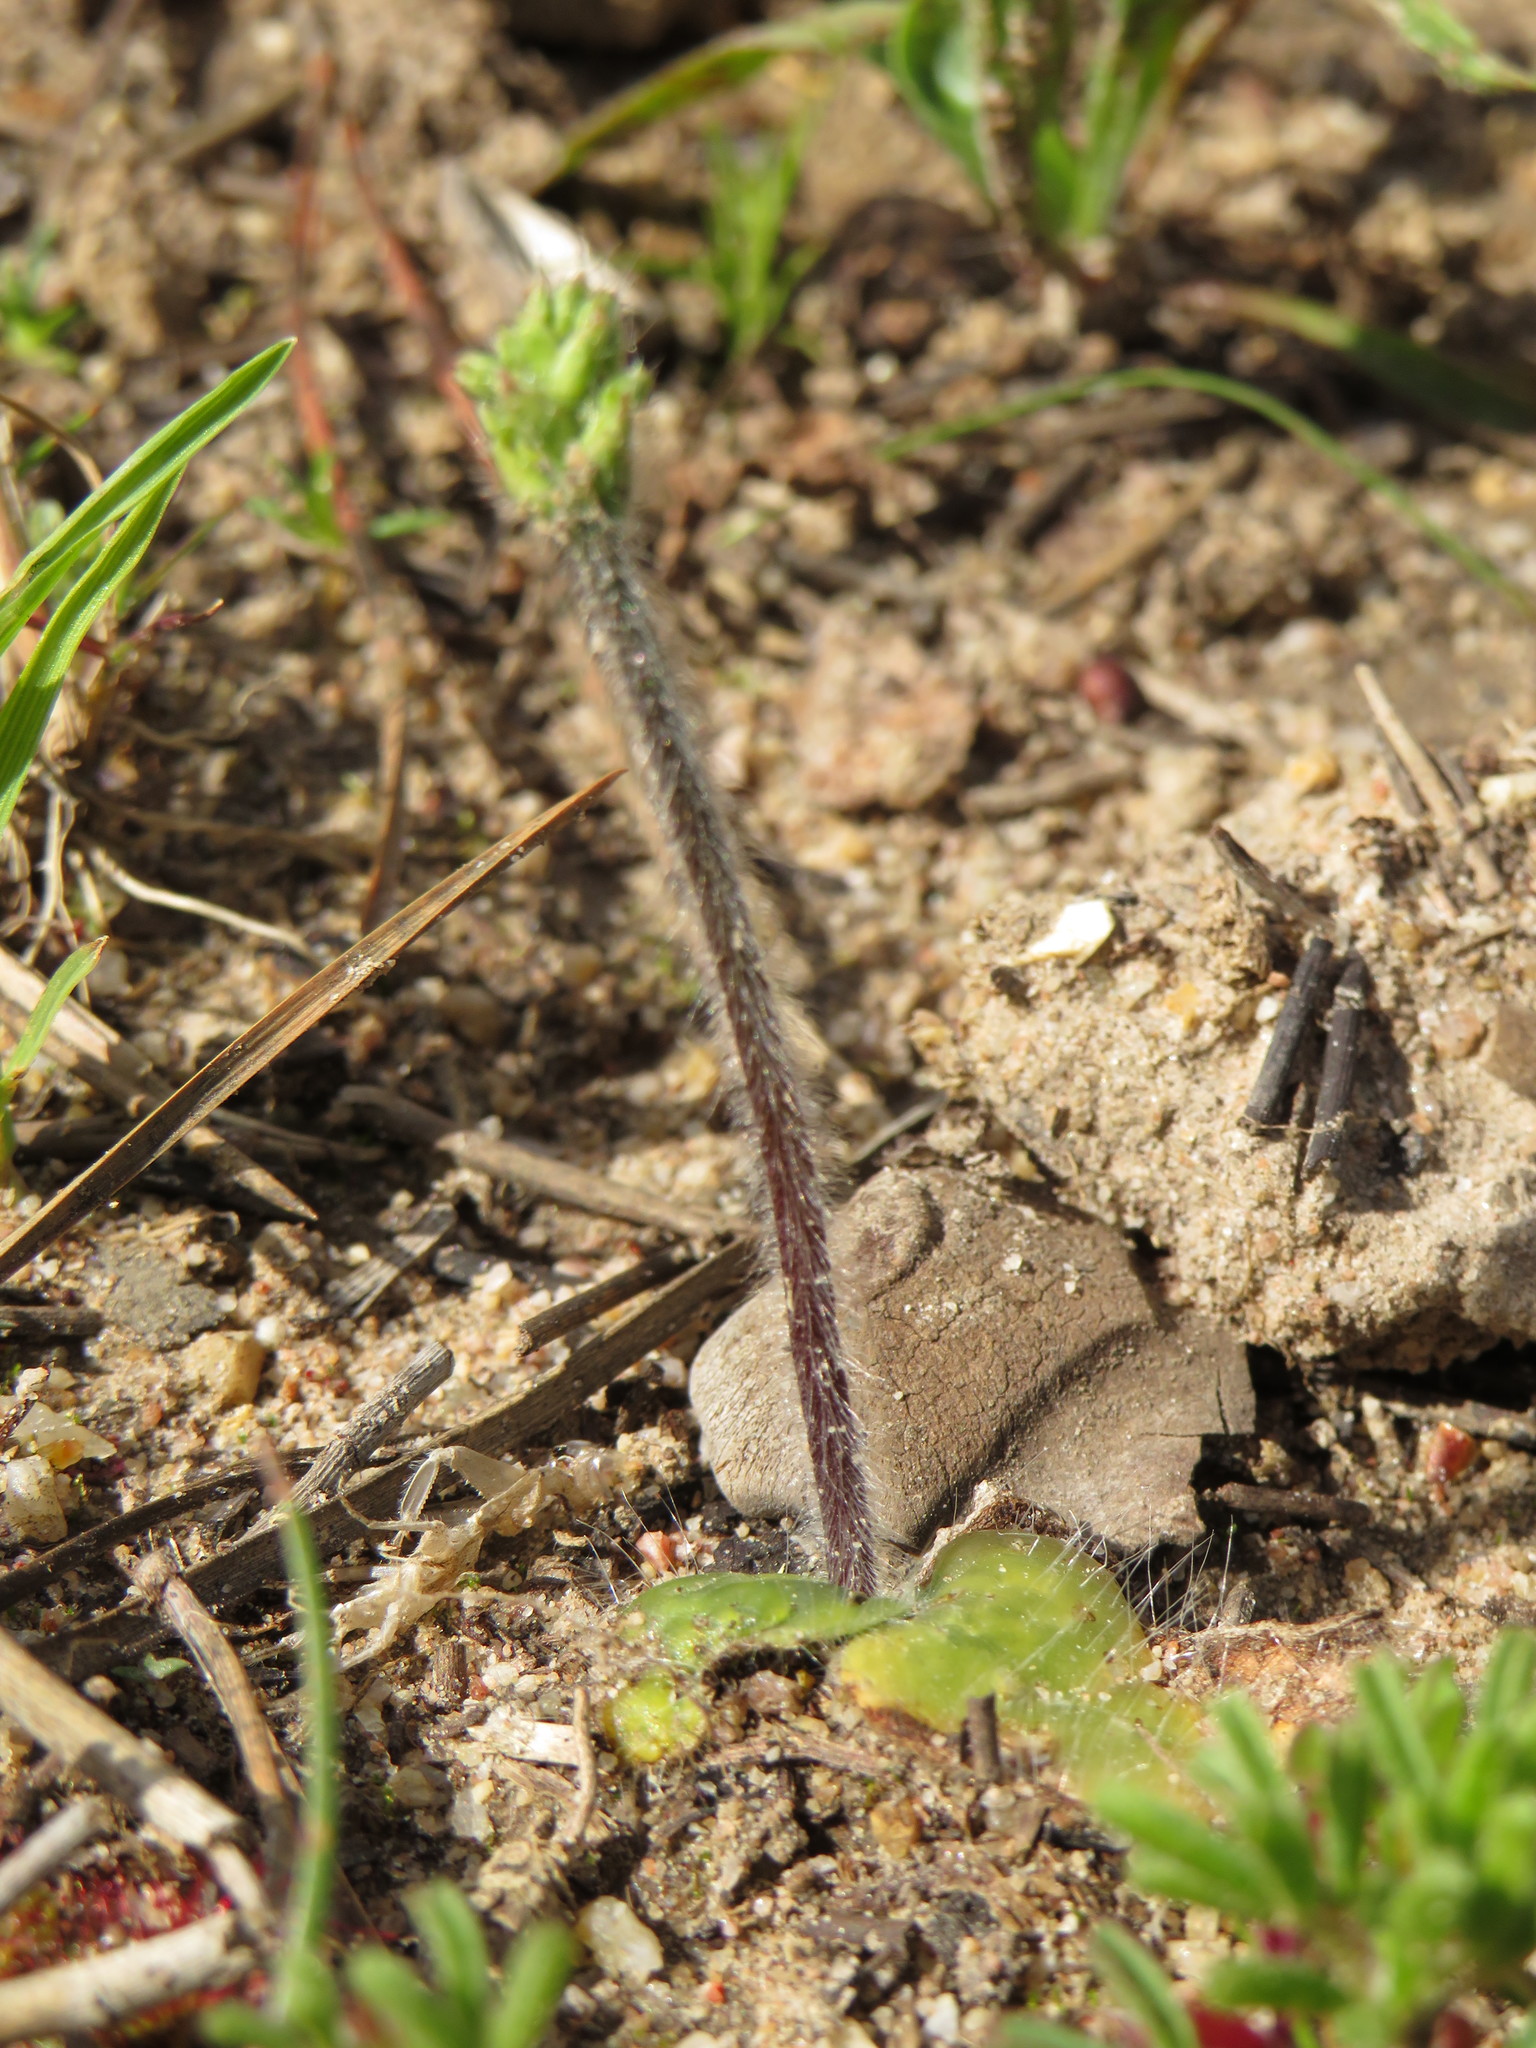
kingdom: Plantae
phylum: Tracheophyta
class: Liliopsida
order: Asparagales
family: Orchidaceae
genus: Holothrix
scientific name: Holothrix villosa
